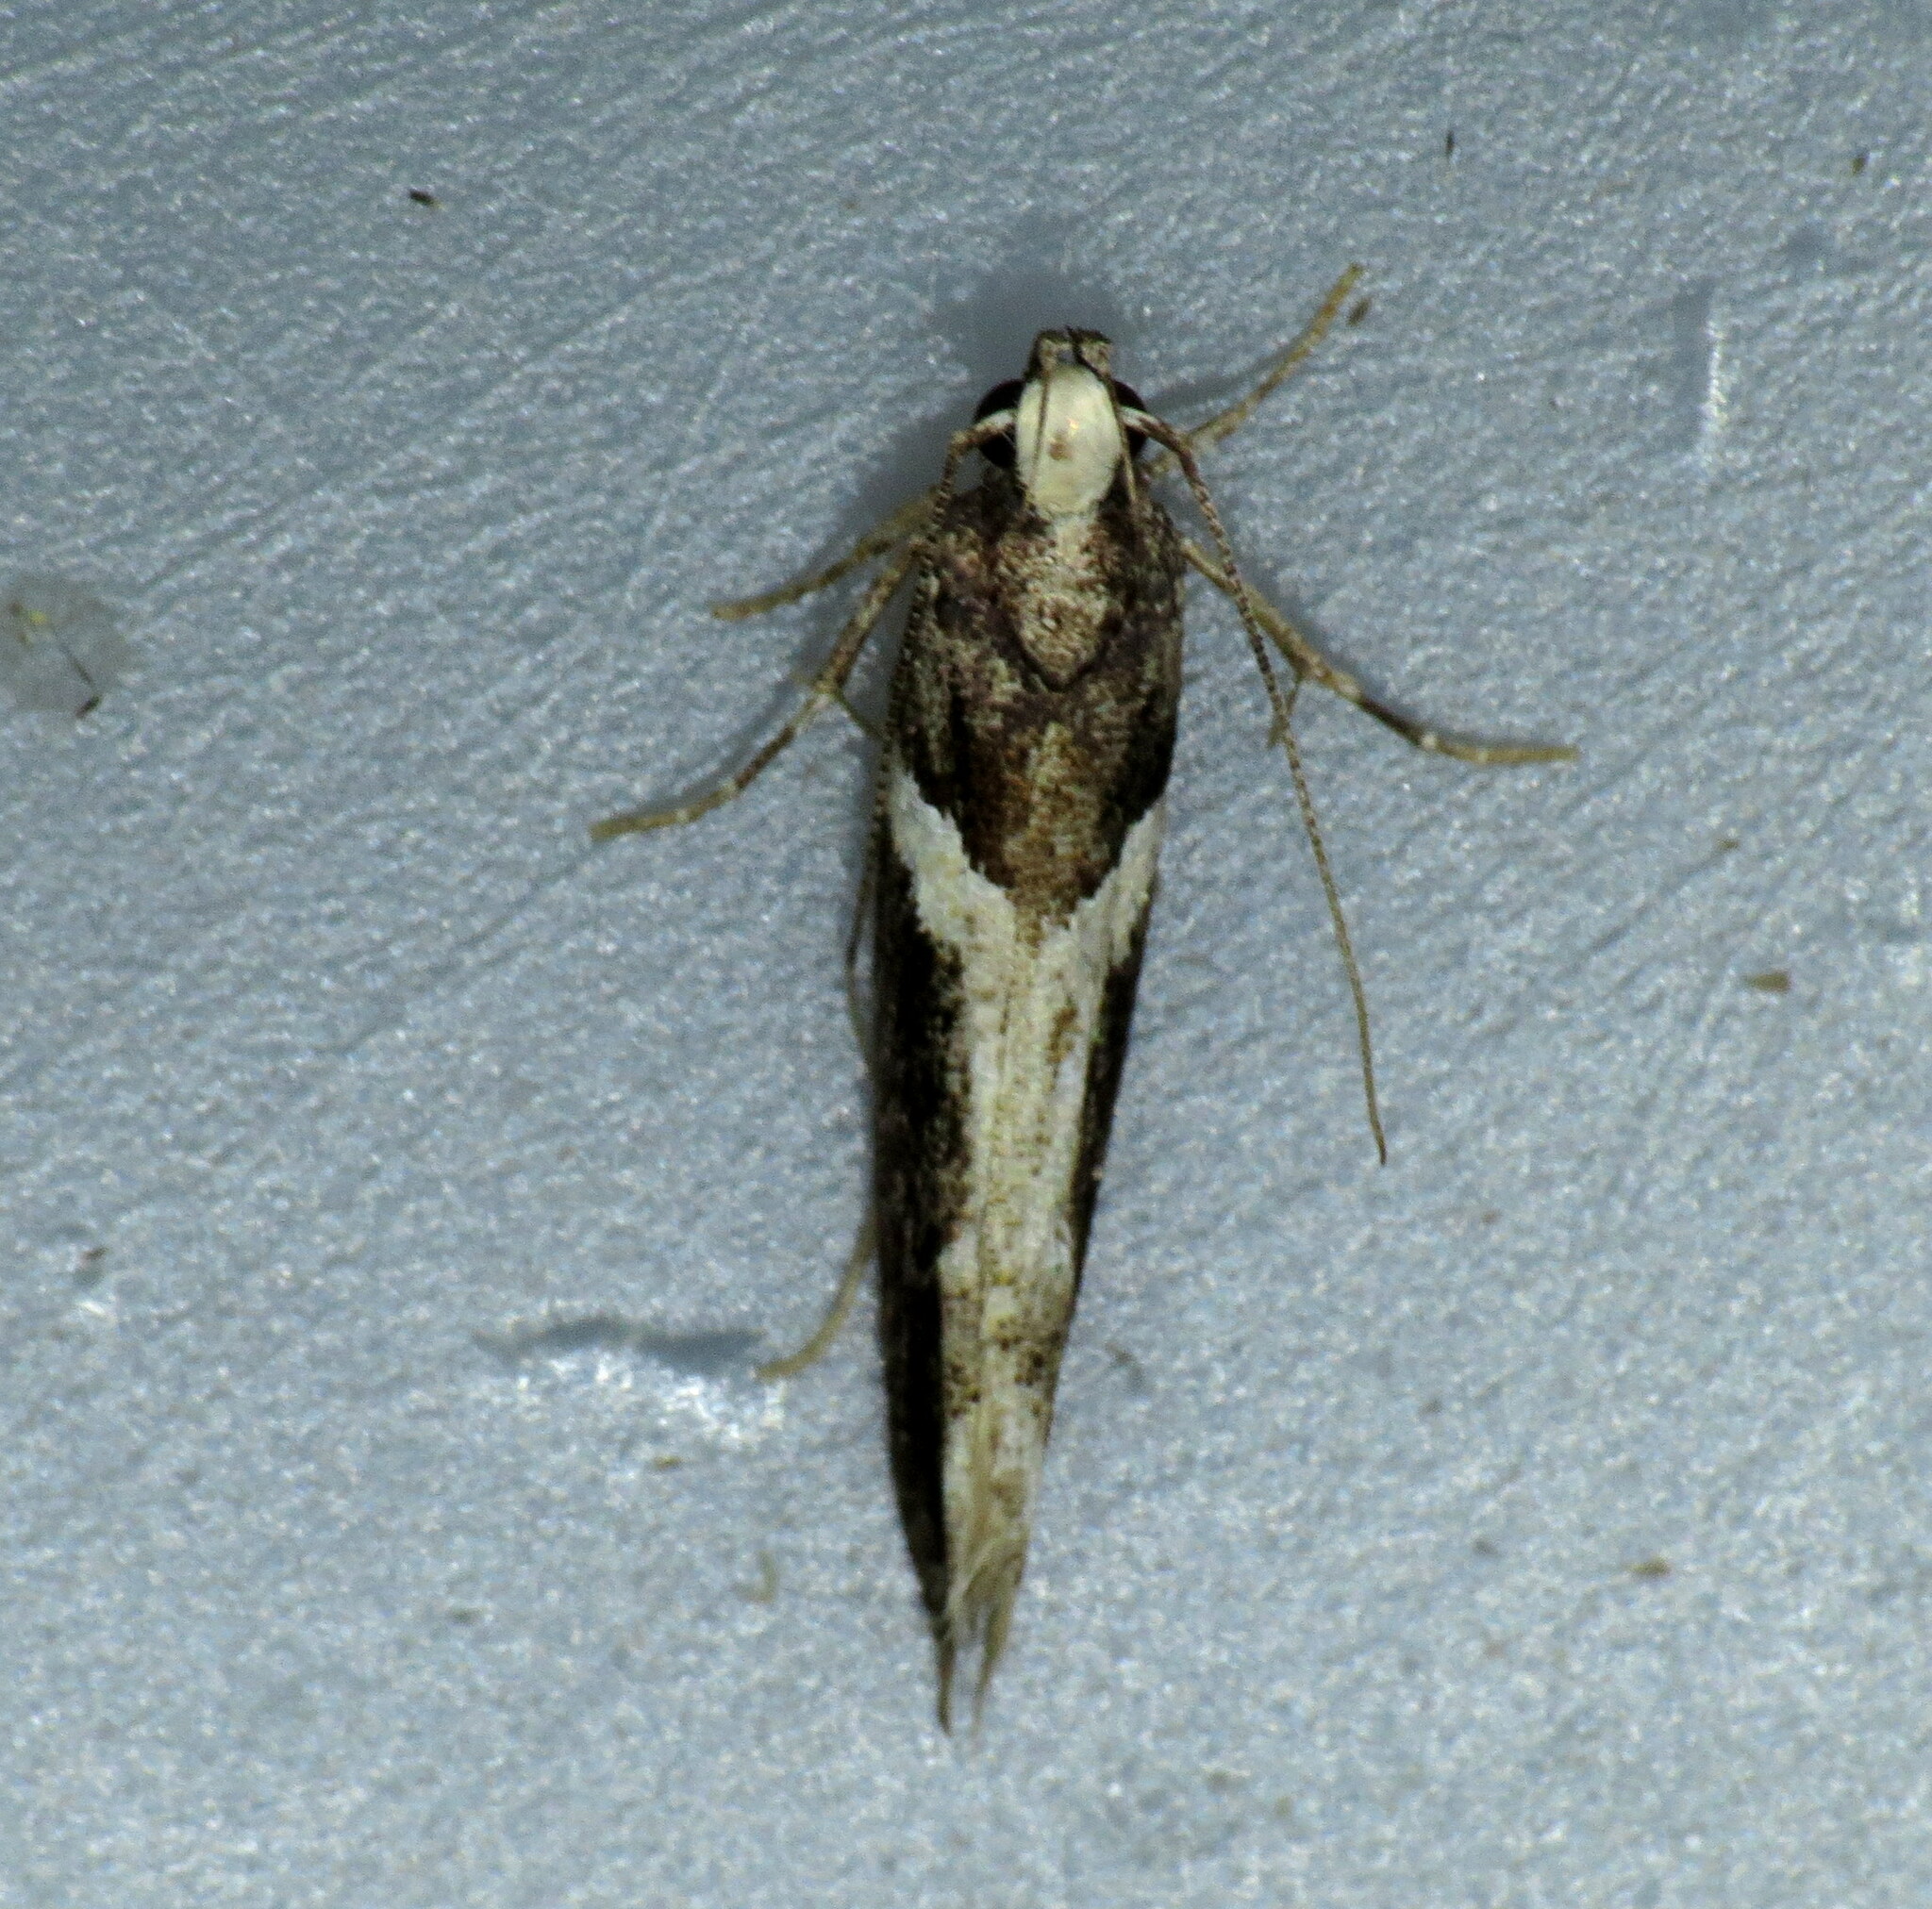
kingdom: Animalia
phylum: Arthropoda
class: Insecta
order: Lepidoptera
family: Gelechiidae
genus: Telphusa
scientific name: Telphusa longifasciella
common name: Y-backed telphusa
